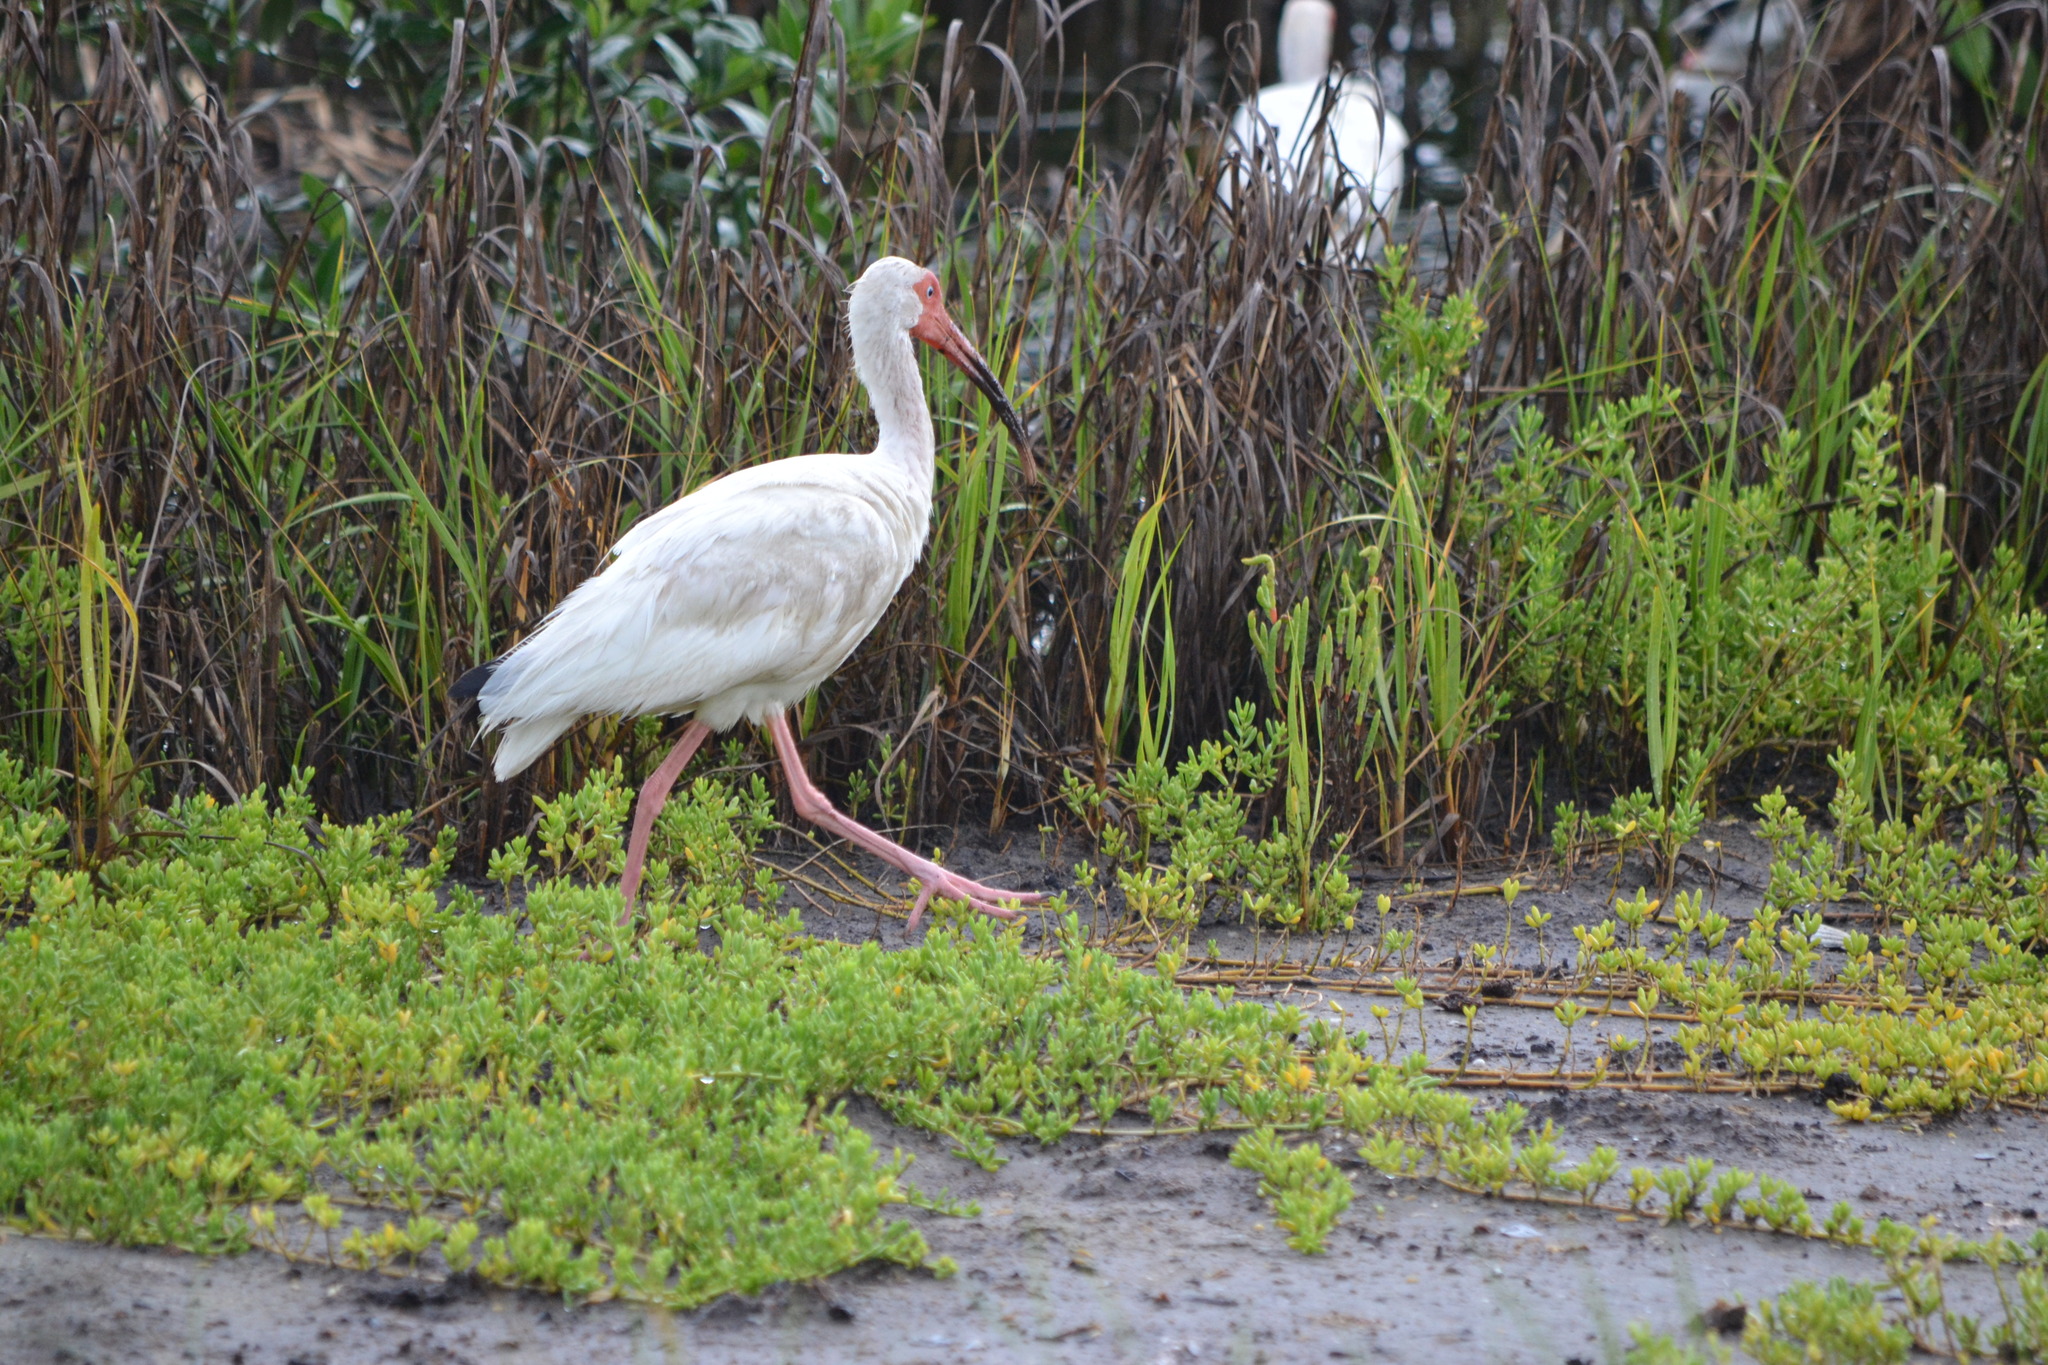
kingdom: Animalia
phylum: Chordata
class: Aves
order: Pelecaniformes
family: Threskiornithidae
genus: Eudocimus
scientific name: Eudocimus albus
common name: White ibis
